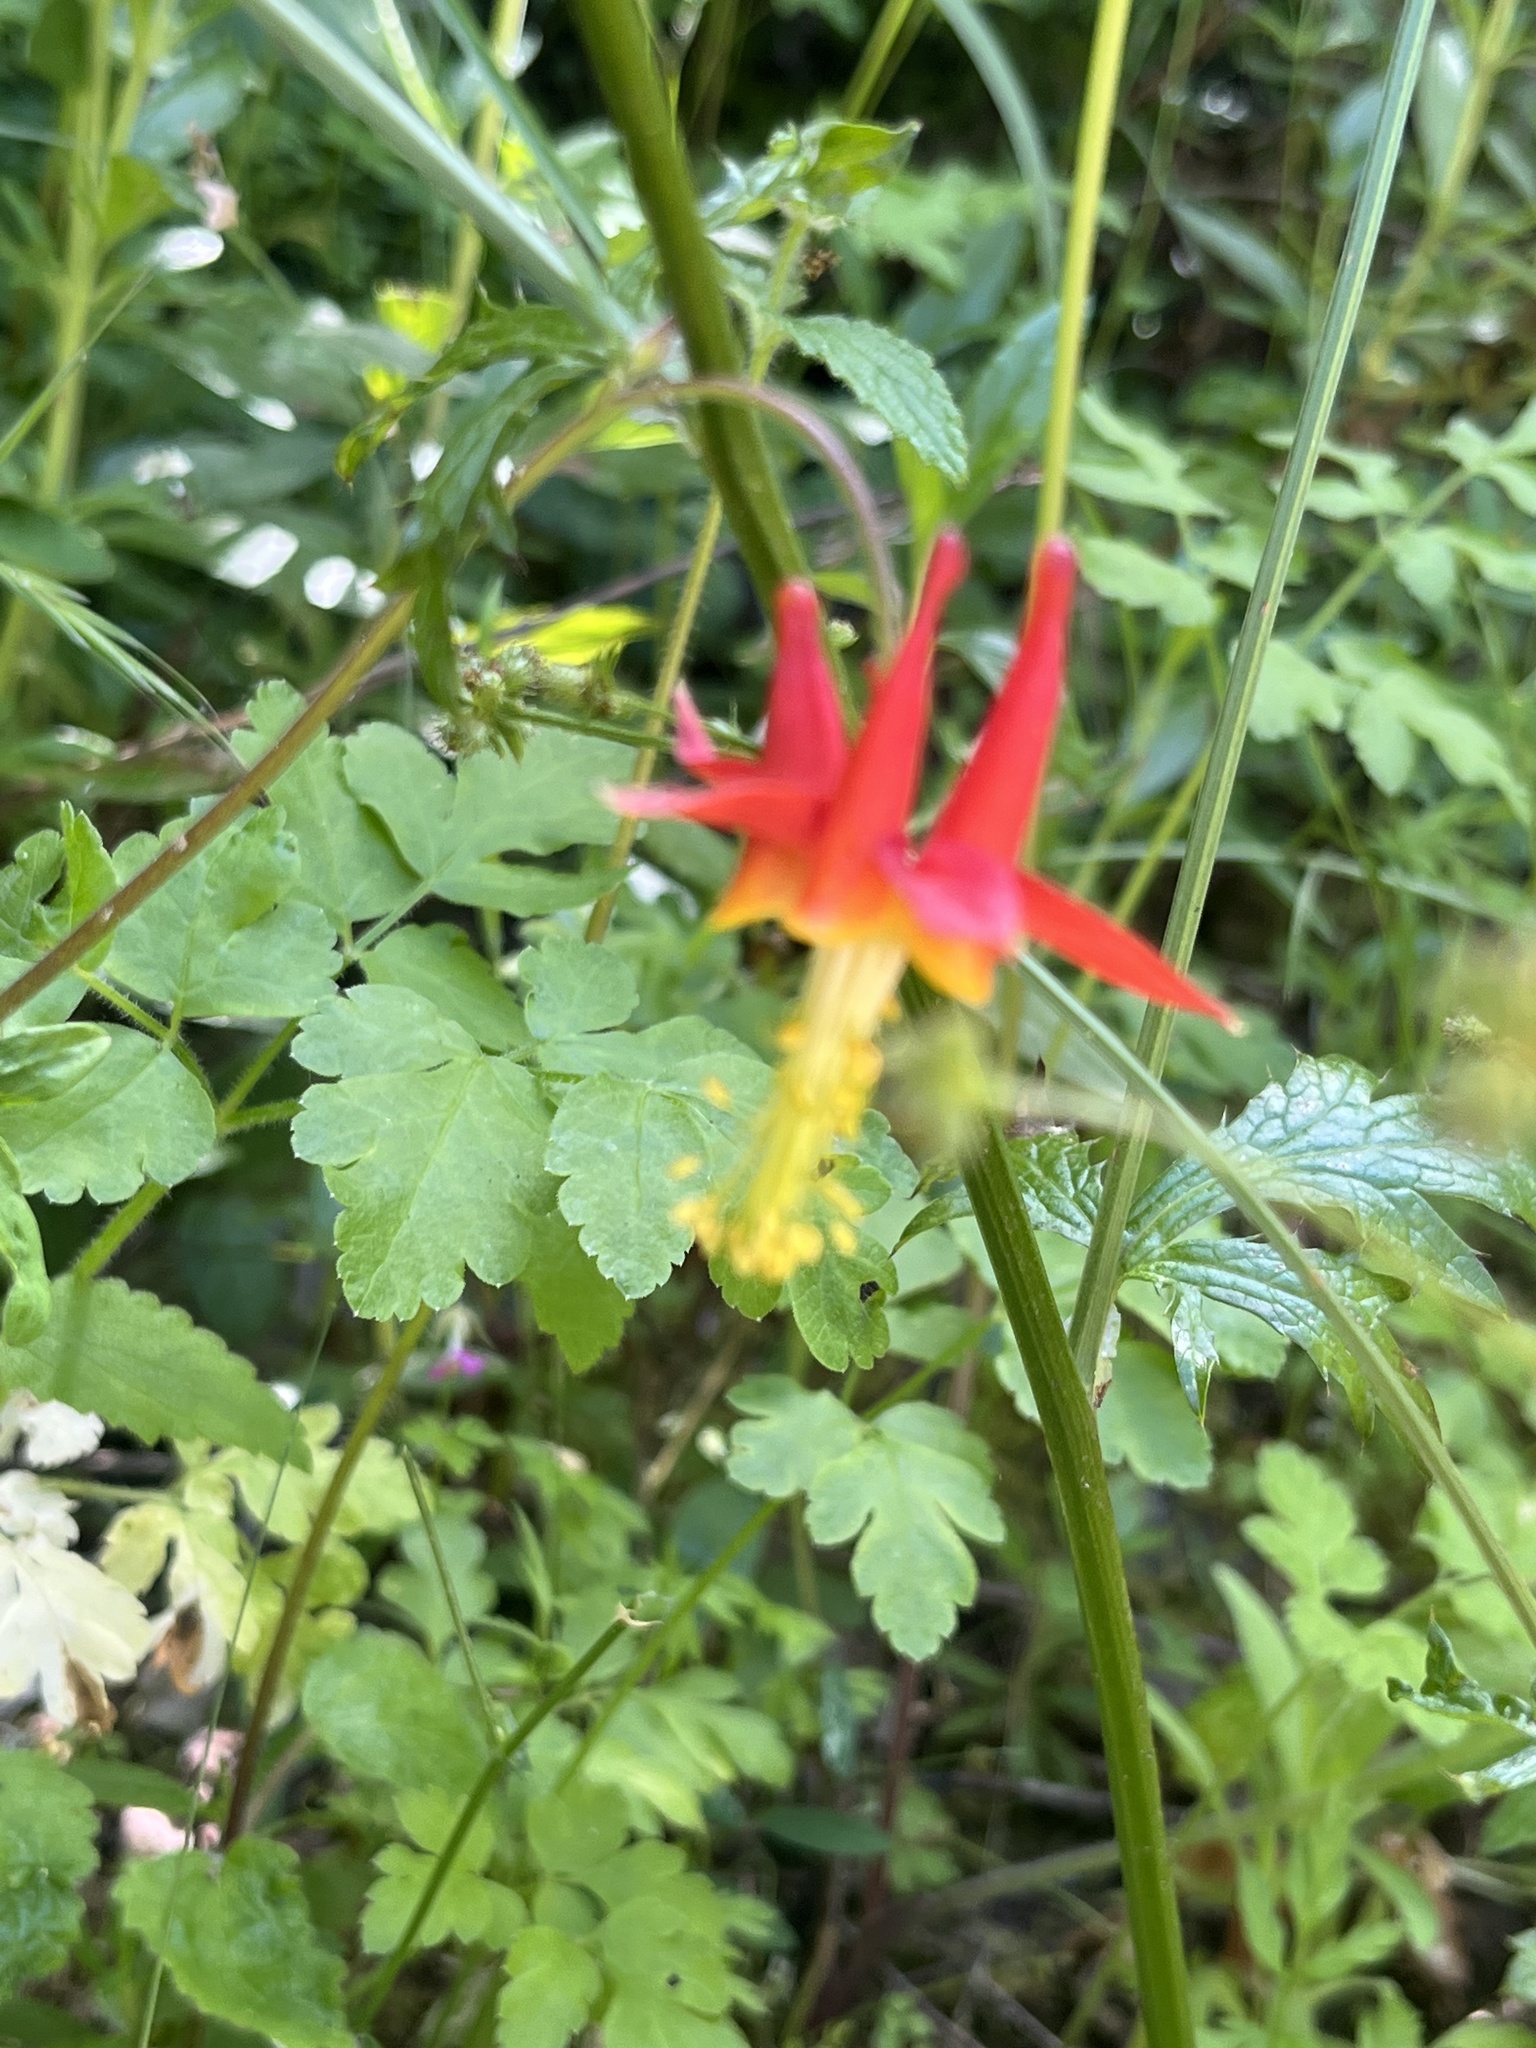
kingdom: Plantae
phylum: Tracheophyta
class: Magnoliopsida
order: Ranunculales
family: Ranunculaceae
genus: Aquilegia
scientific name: Aquilegia formosa
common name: Sitka columbine
